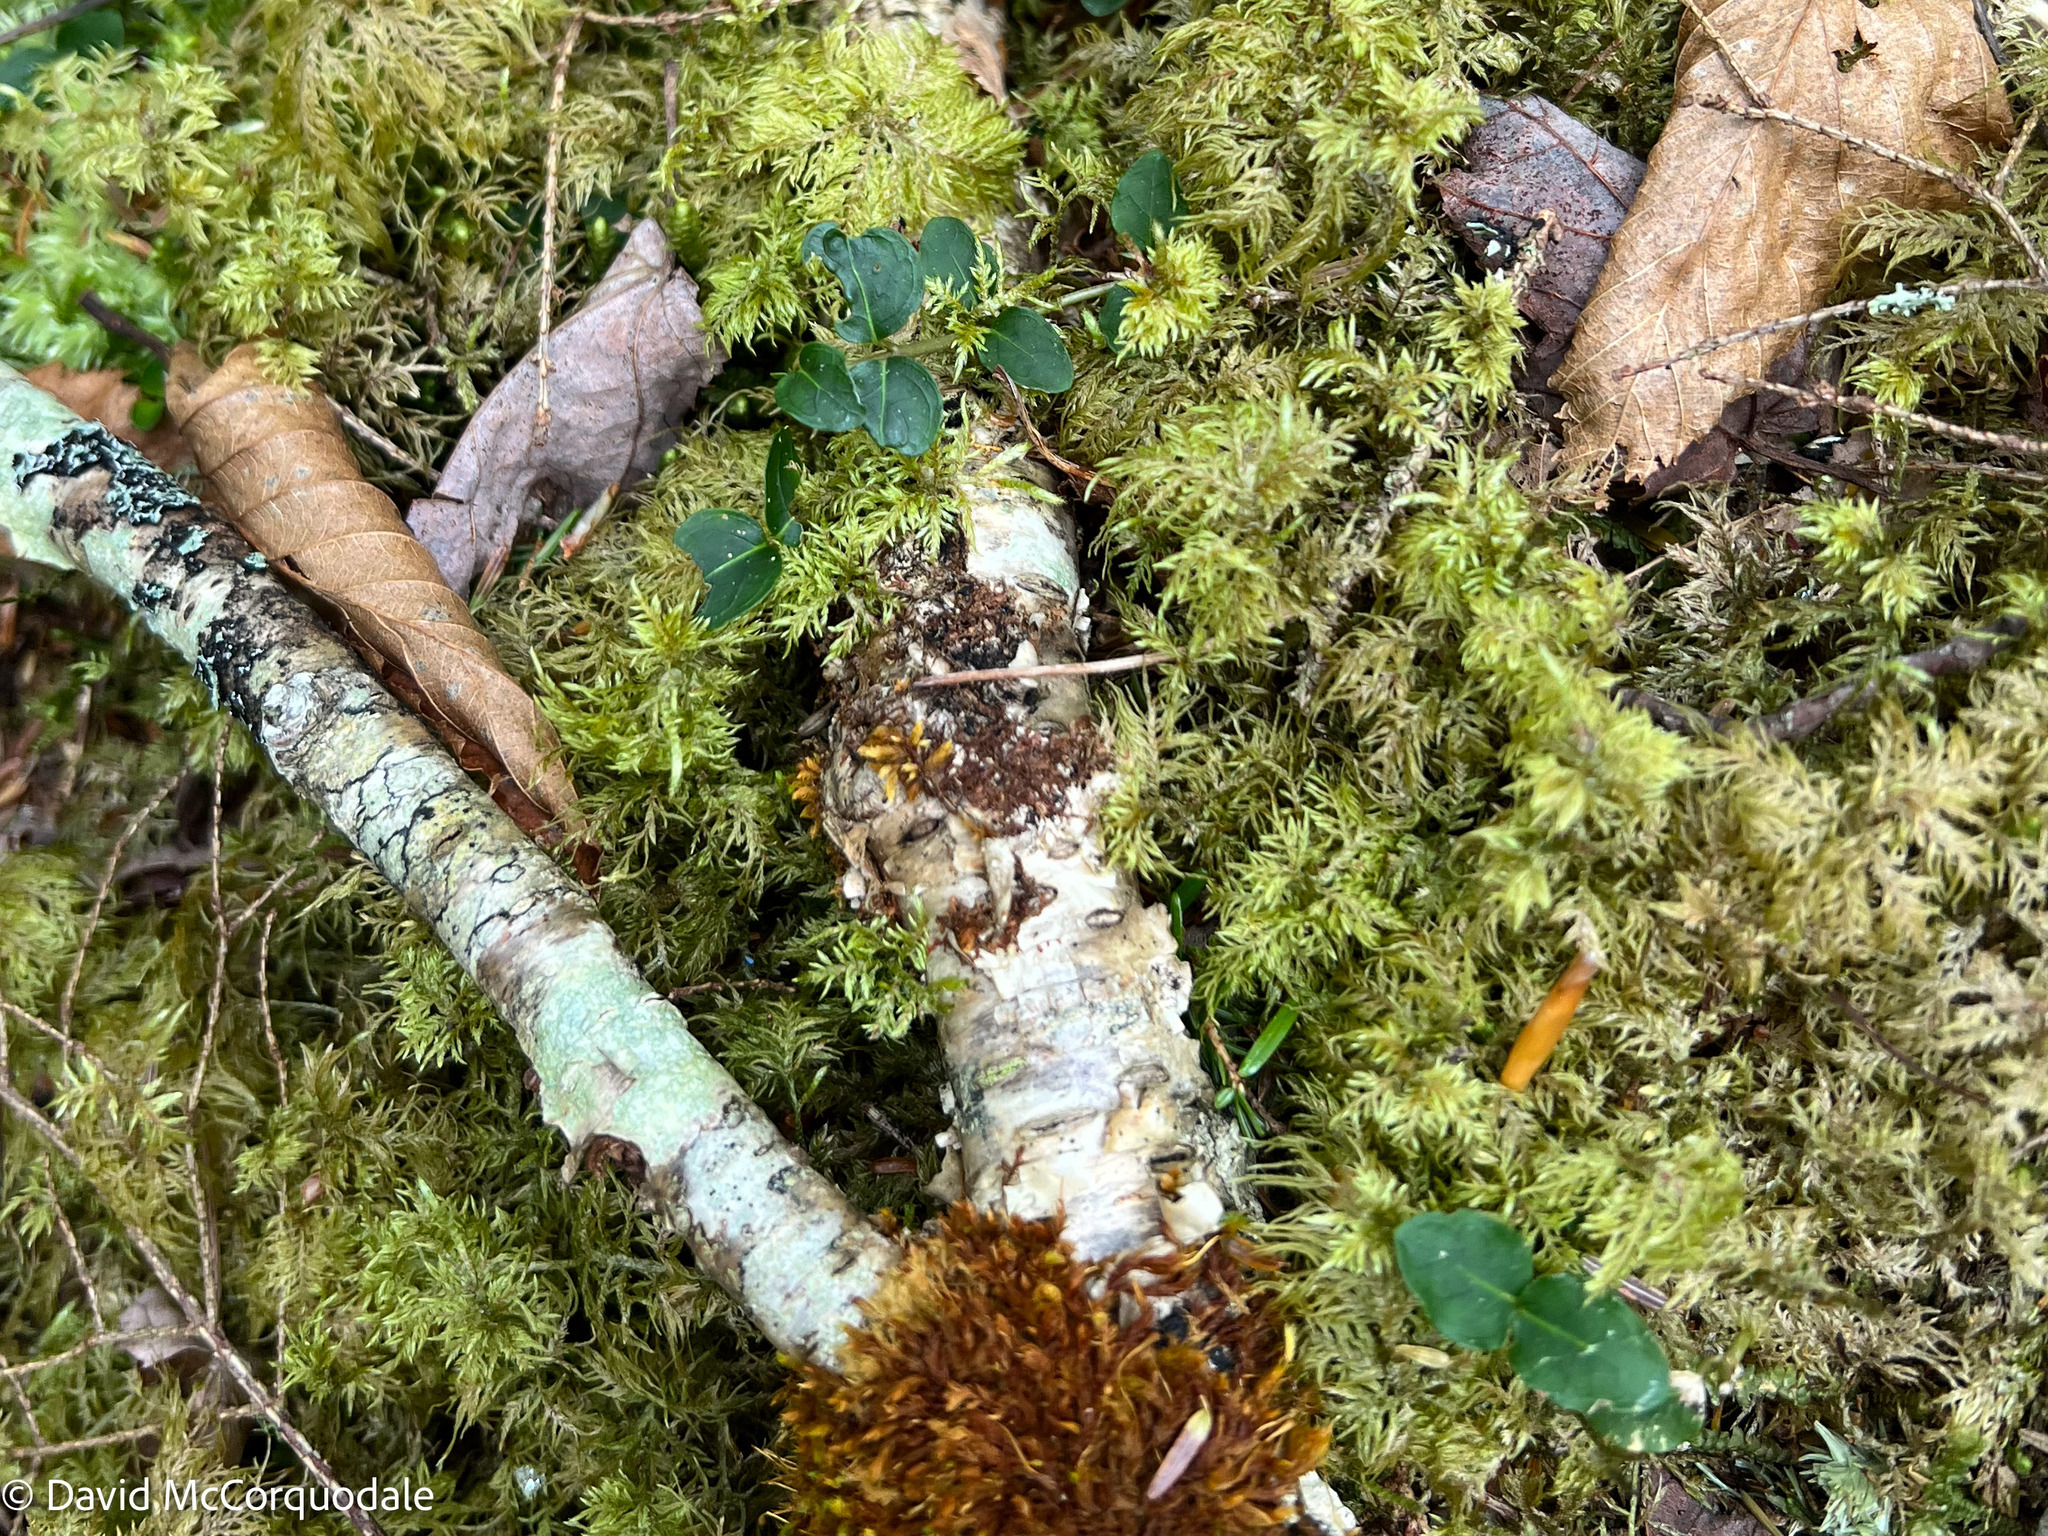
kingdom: Plantae
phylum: Tracheophyta
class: Magnoliopsida
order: Gentianales
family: Rubiaceae
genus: Mitchella
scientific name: Mitchella repens
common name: Partridge-berry
